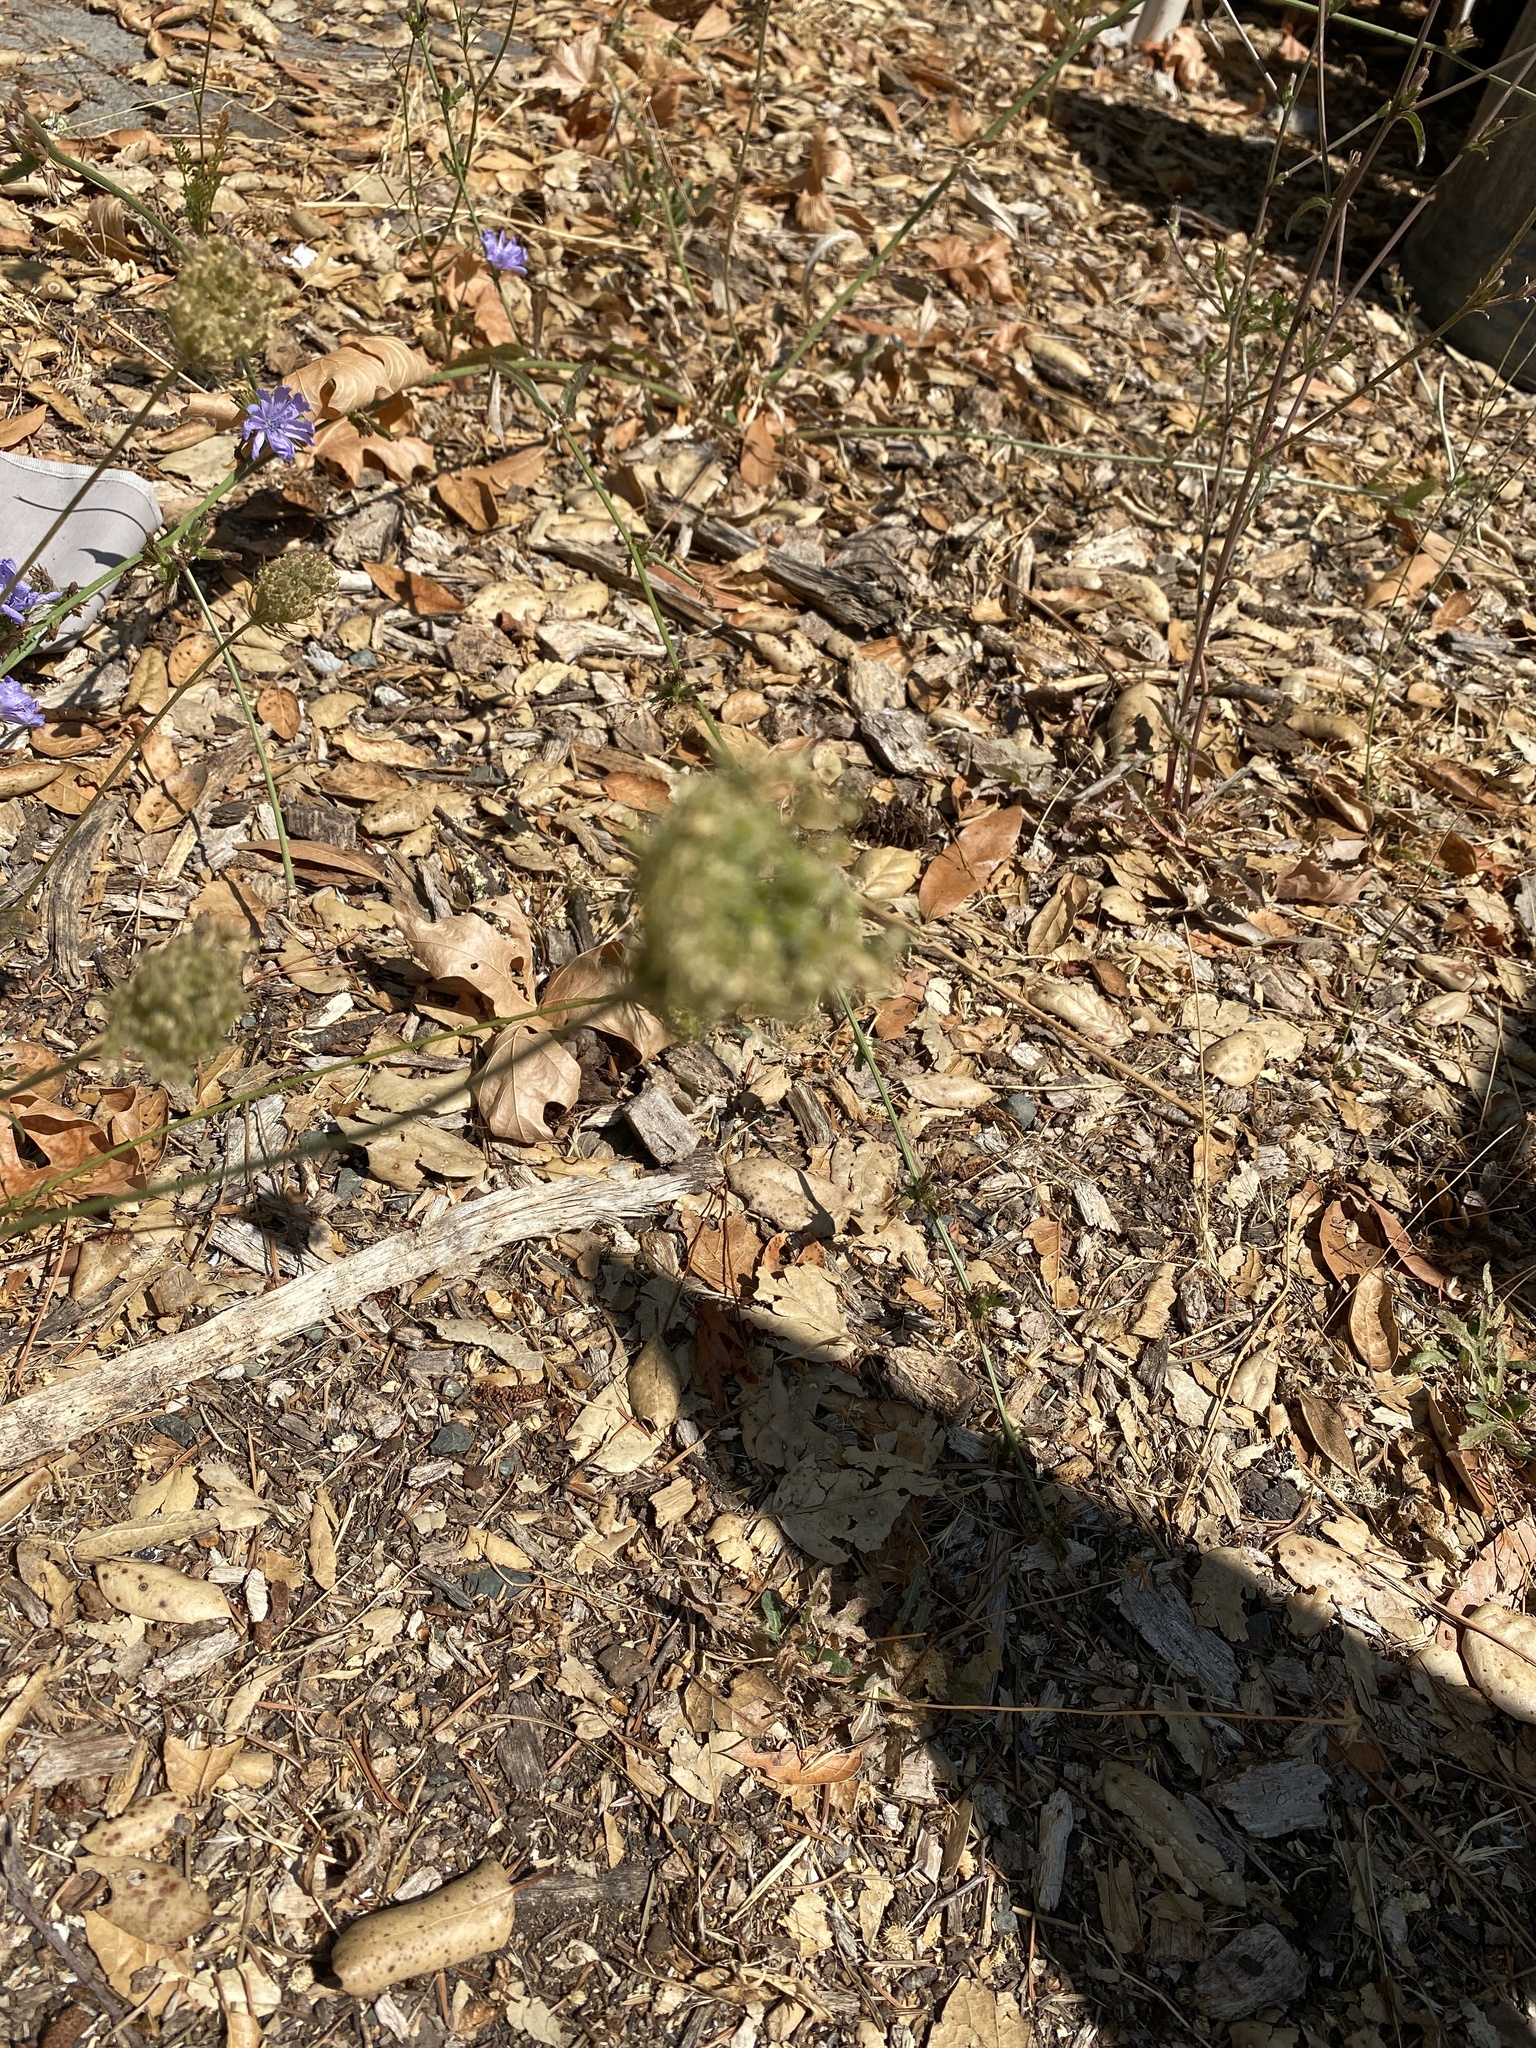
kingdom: Plantae
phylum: Tracheophyta
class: Magnoliopsida
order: Asterales
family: Asteraceae
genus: Cichorium
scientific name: Cichorium intybus
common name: Chicory
